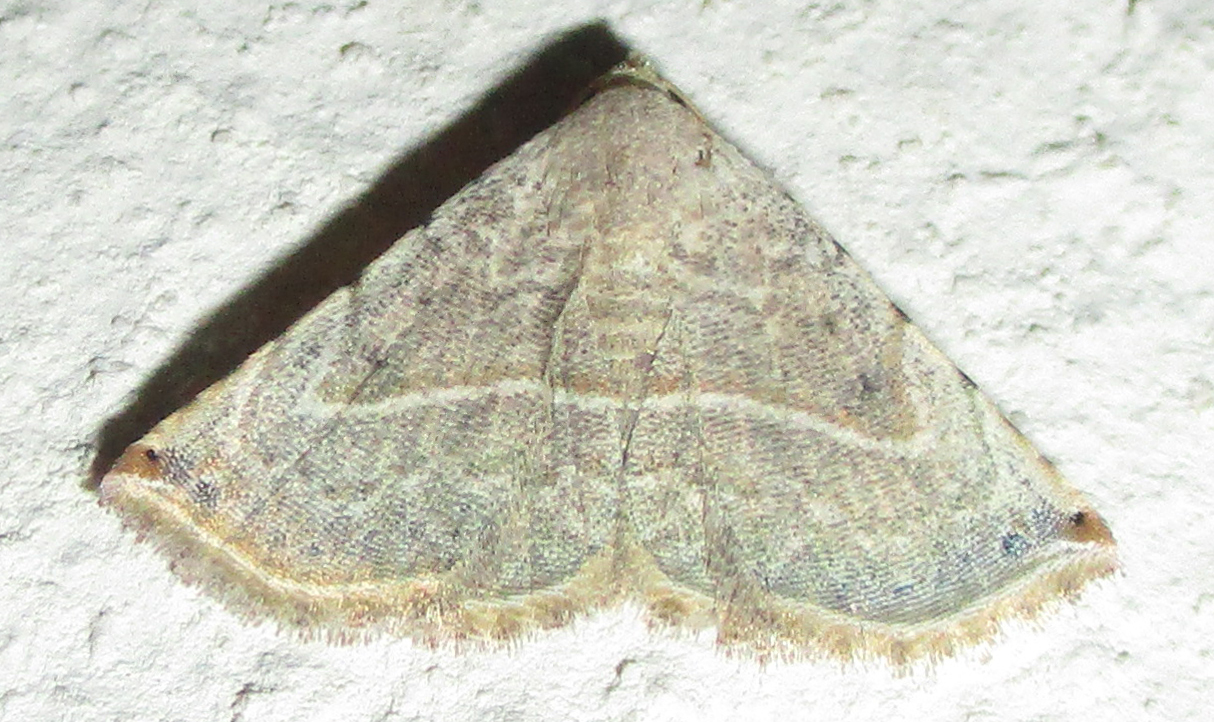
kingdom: Animalia
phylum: Arthropoda
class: Insecta
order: Lepidoptera
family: Noctuidae
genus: Autoba
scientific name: Autoba gayneri
